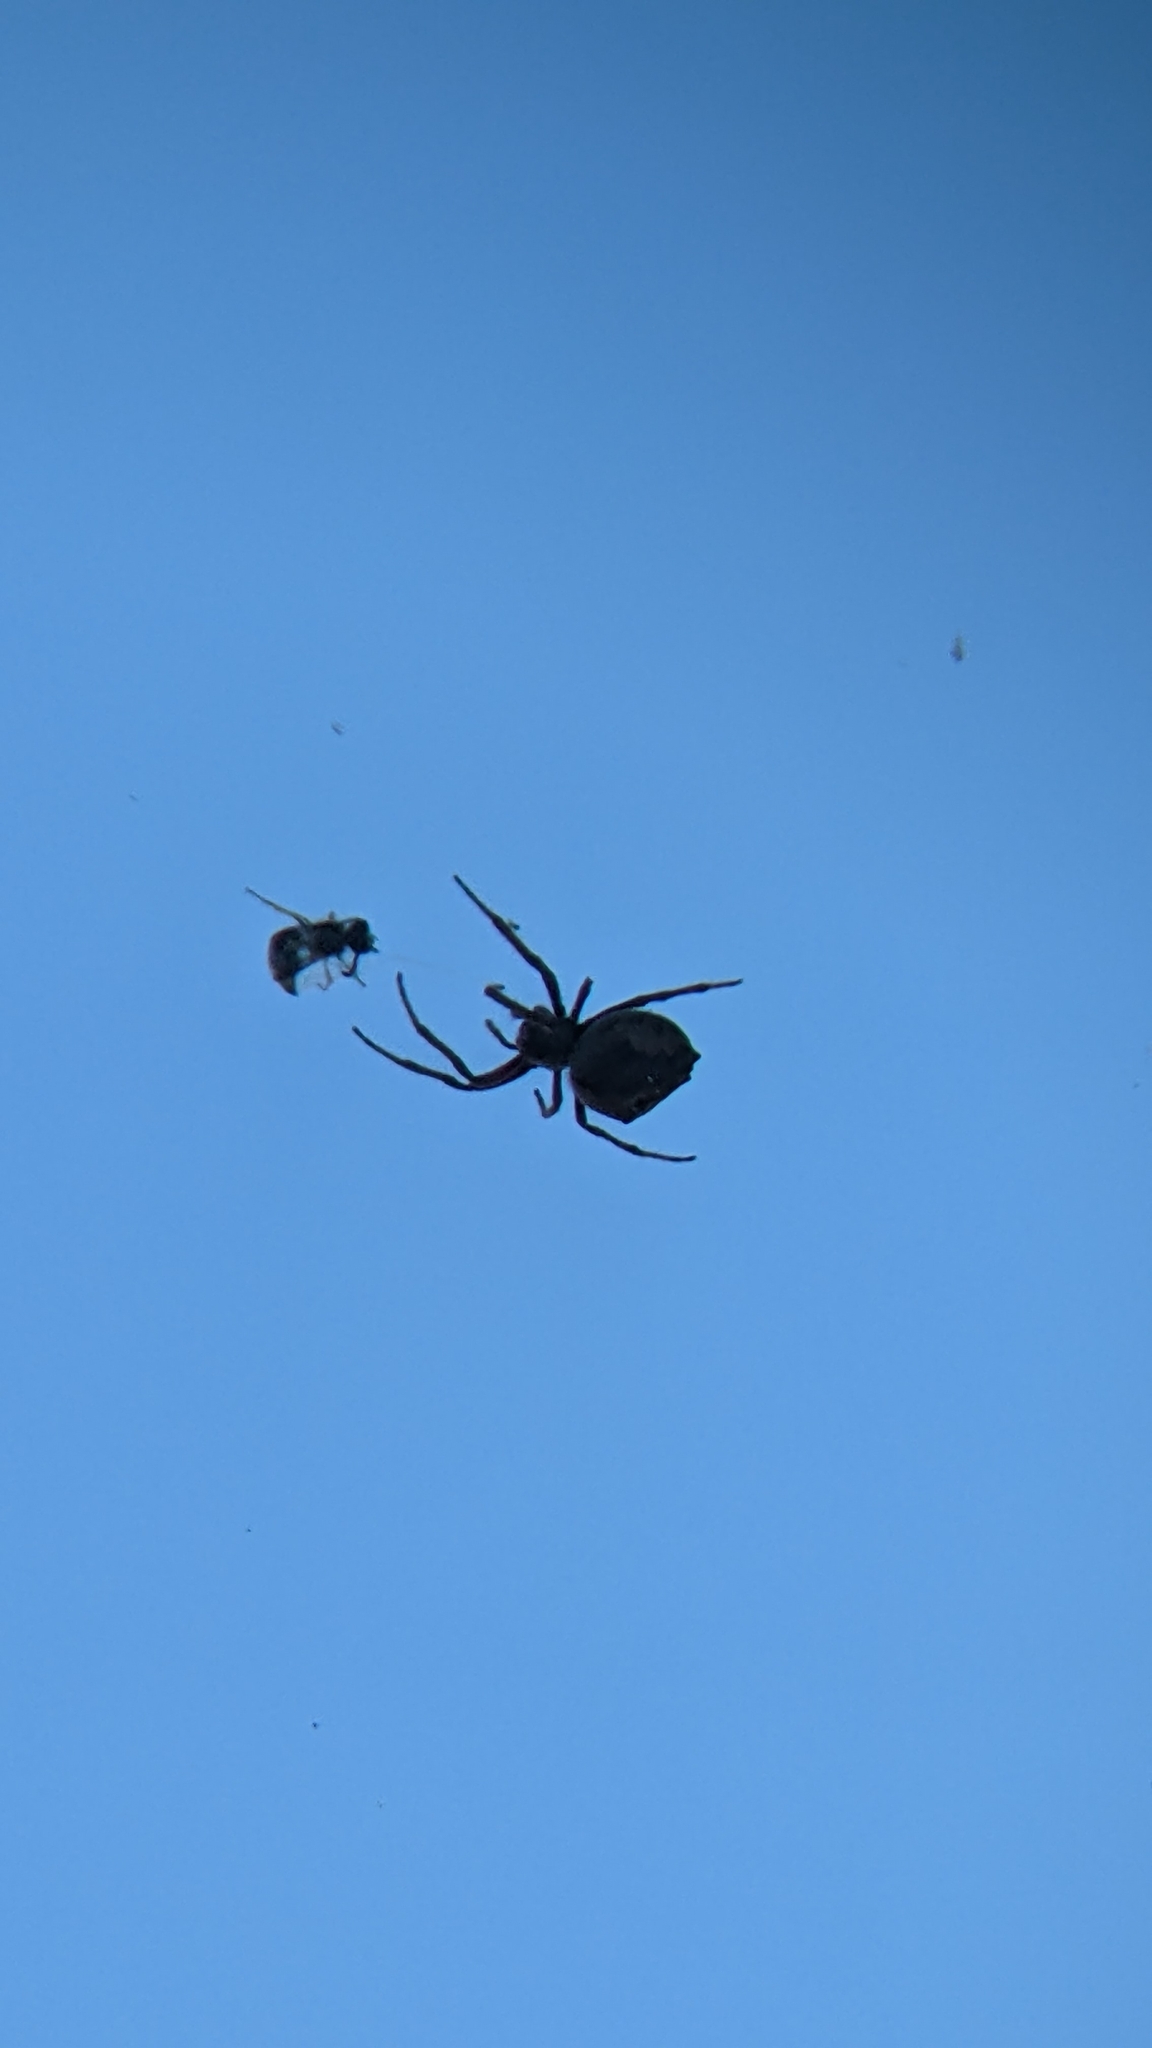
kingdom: Animalia
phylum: Arthropoda
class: Arachnida
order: Araneae
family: Araneidae
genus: Eriophora
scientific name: Eriophora pustulosa
